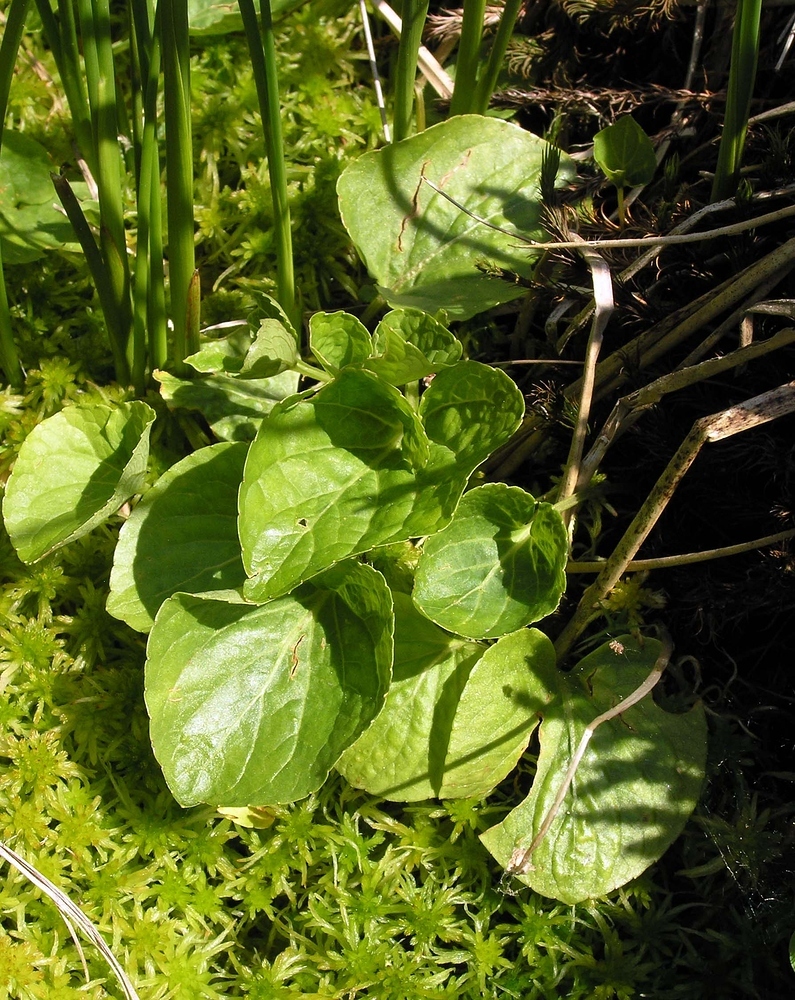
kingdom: Plantae
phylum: Tracheophyta
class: Magnoliopsida
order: Malpighiales
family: Violaceae
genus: Viola
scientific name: Viola palustris
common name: Marsh violet
